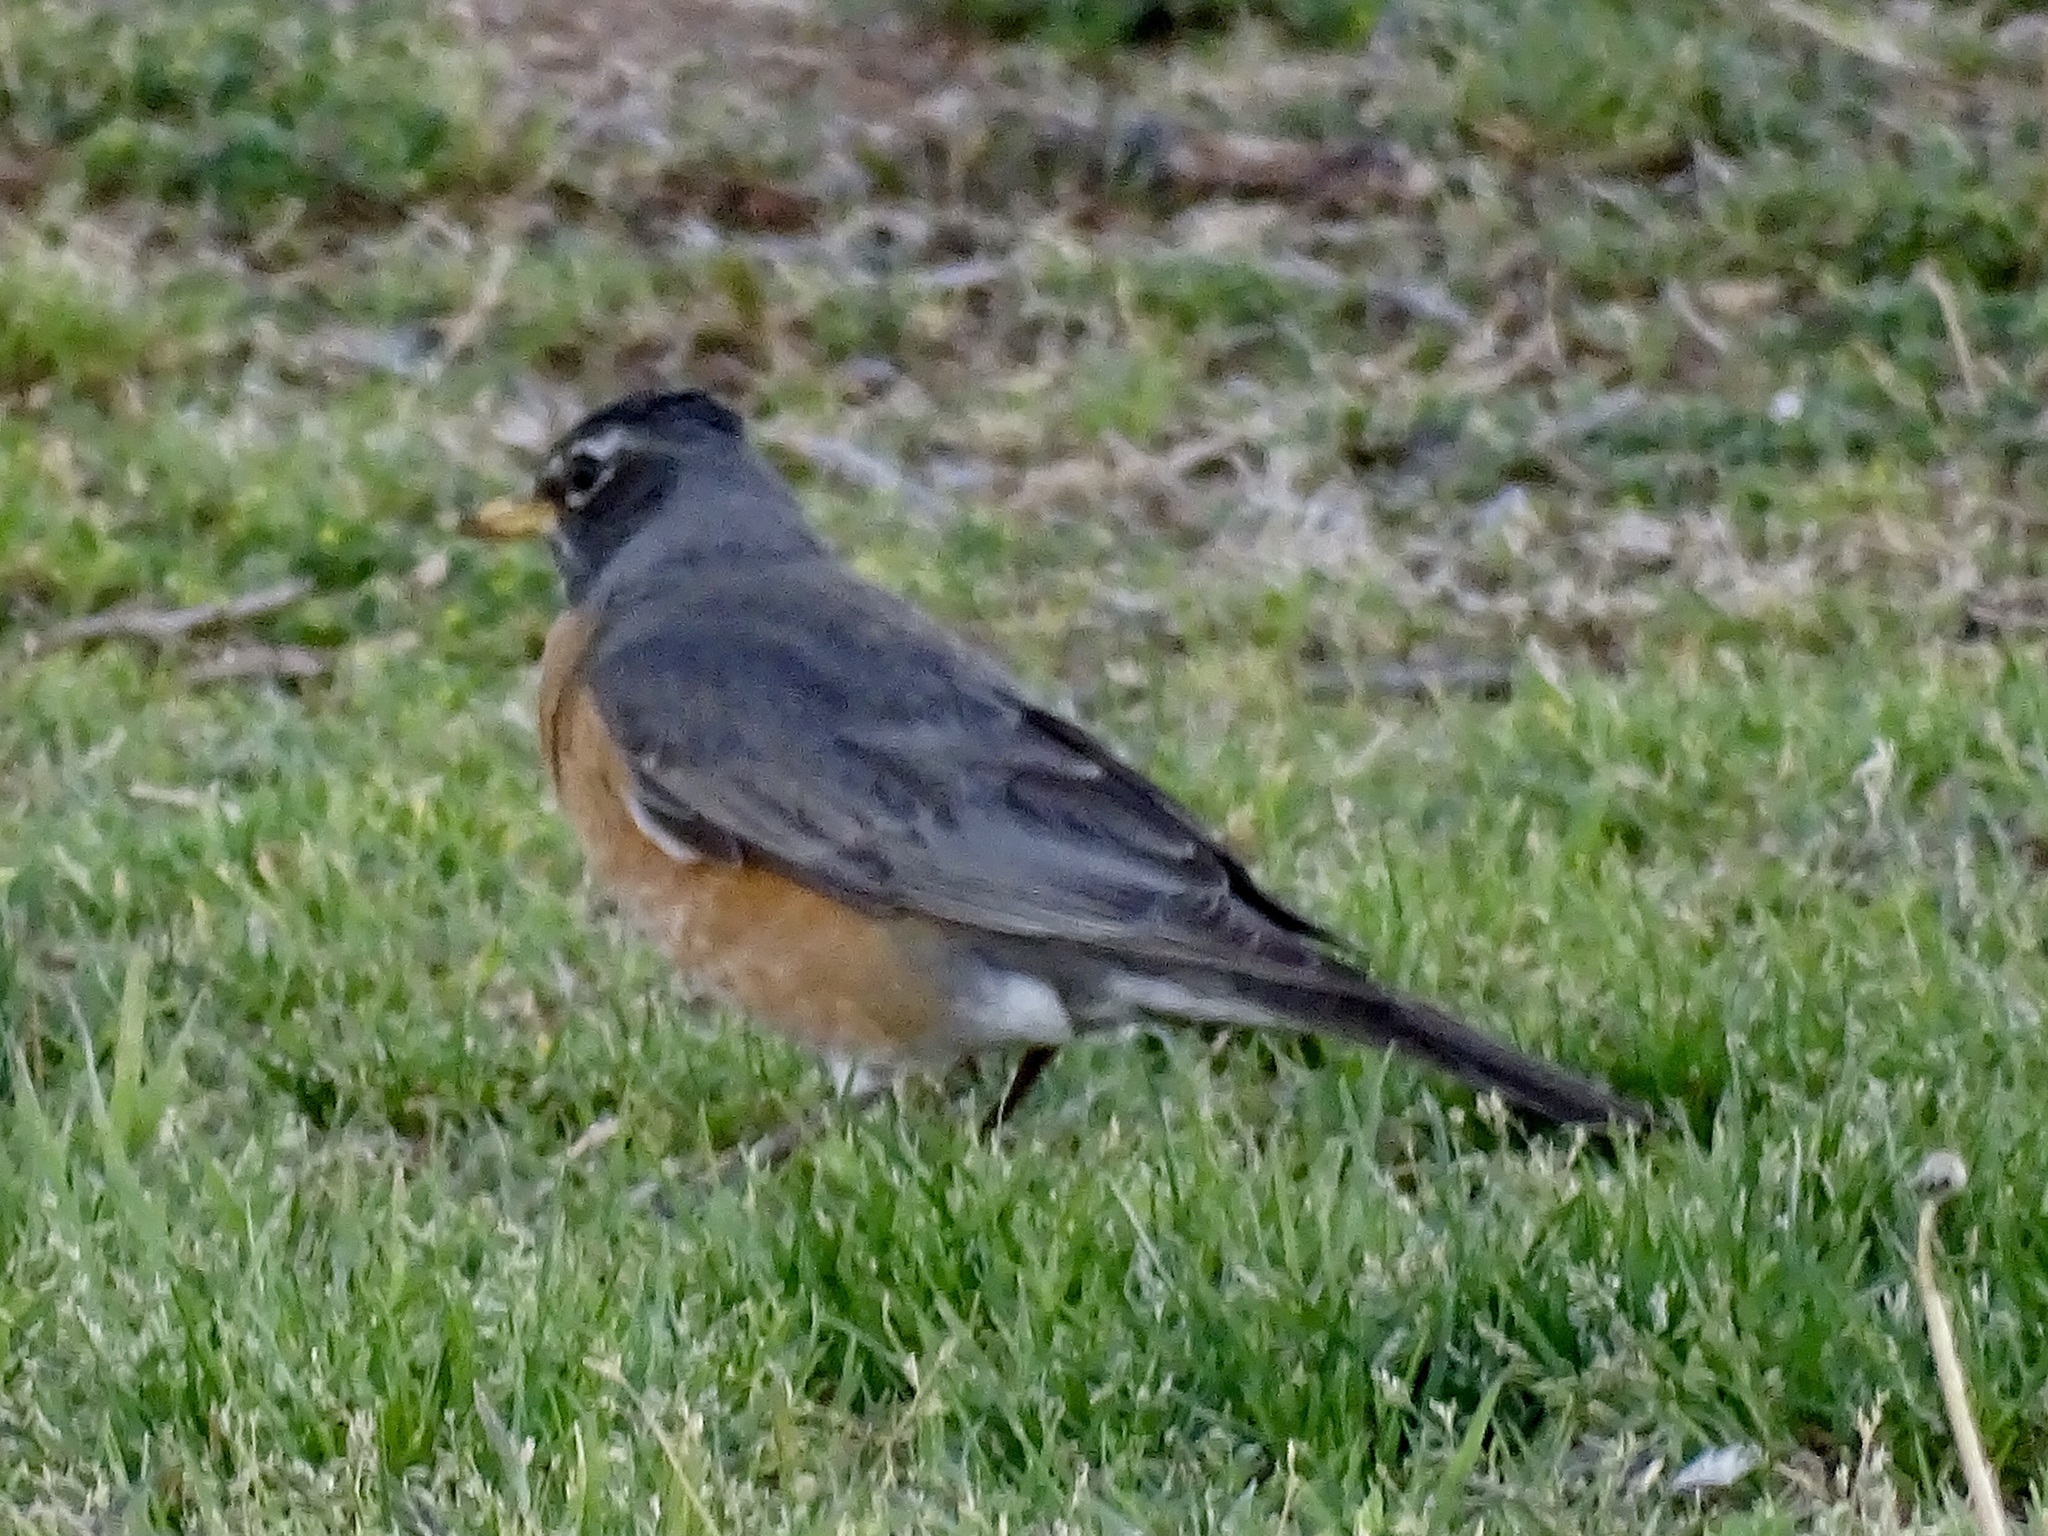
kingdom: Animalia
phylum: Chordata
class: Aves
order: Passeriformes
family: Turdidae
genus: Turdus
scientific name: Turdus migratorius
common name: American robin
